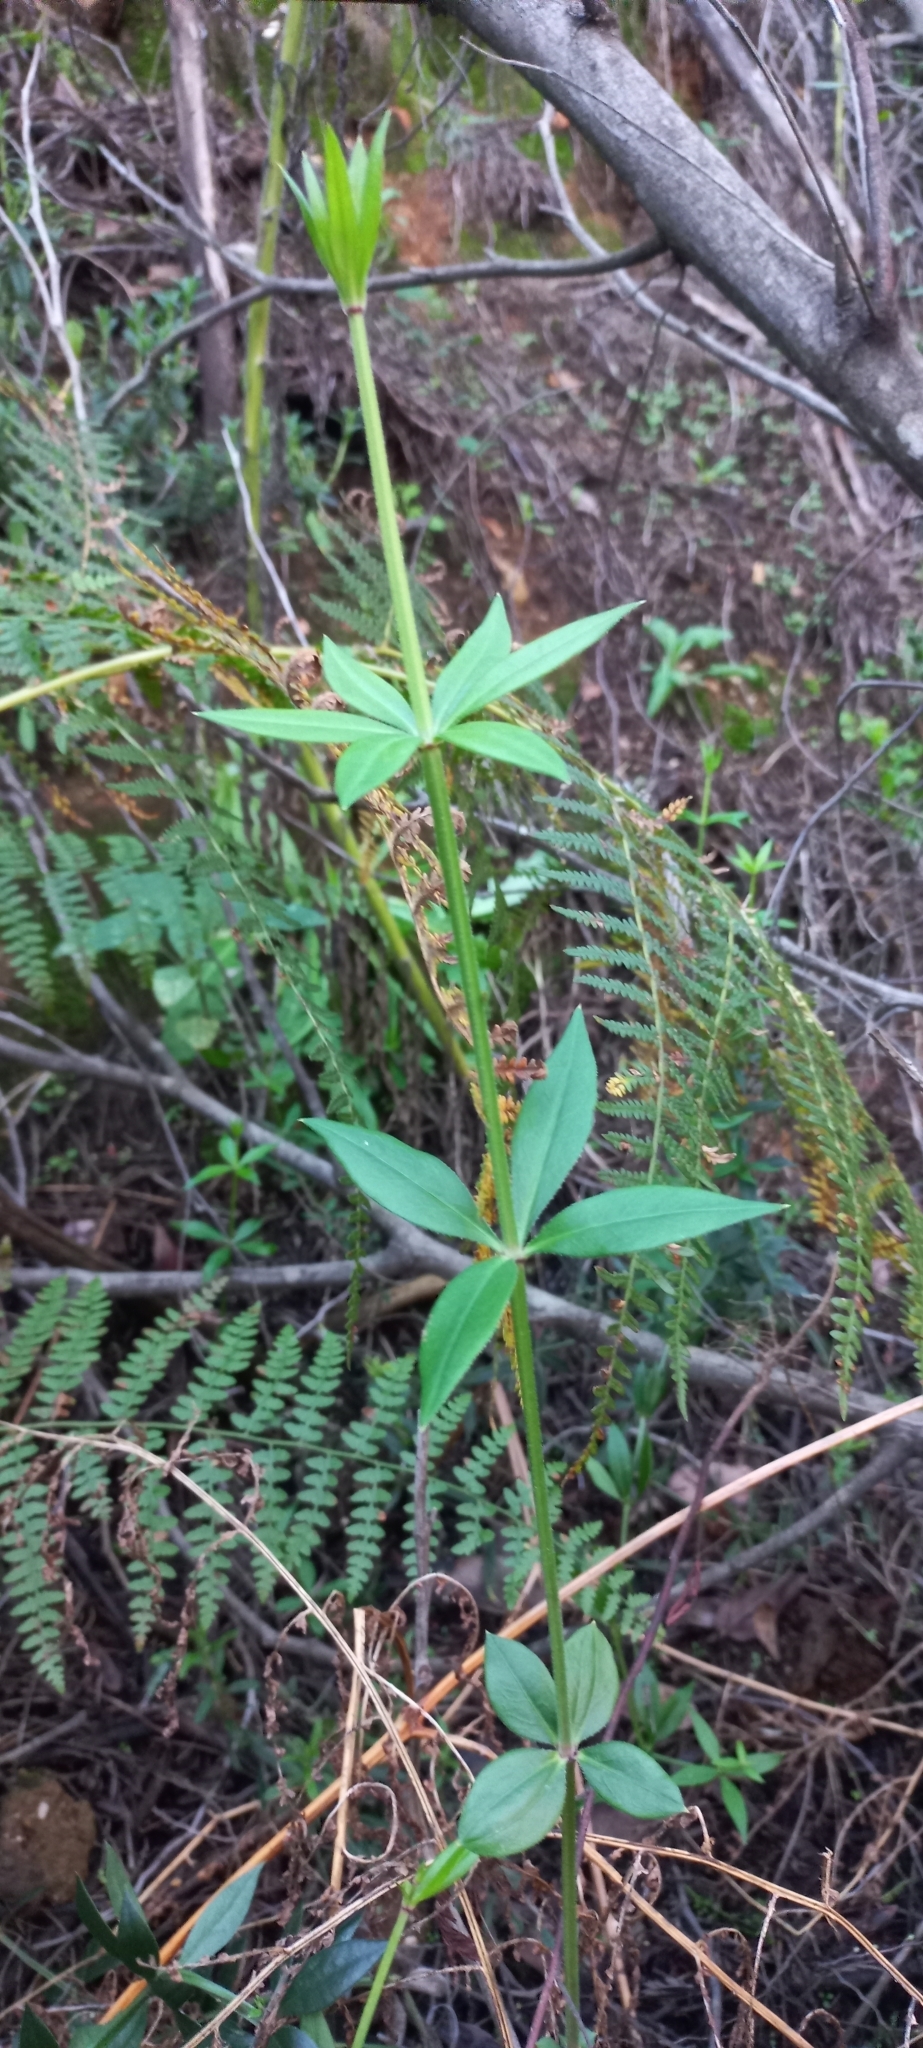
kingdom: Plantae
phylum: Tracheophyta
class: Magnoliopsida
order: Gentianales
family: Rubiaceae
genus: Rubia
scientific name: Rubia peregrina
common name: Wild madder
